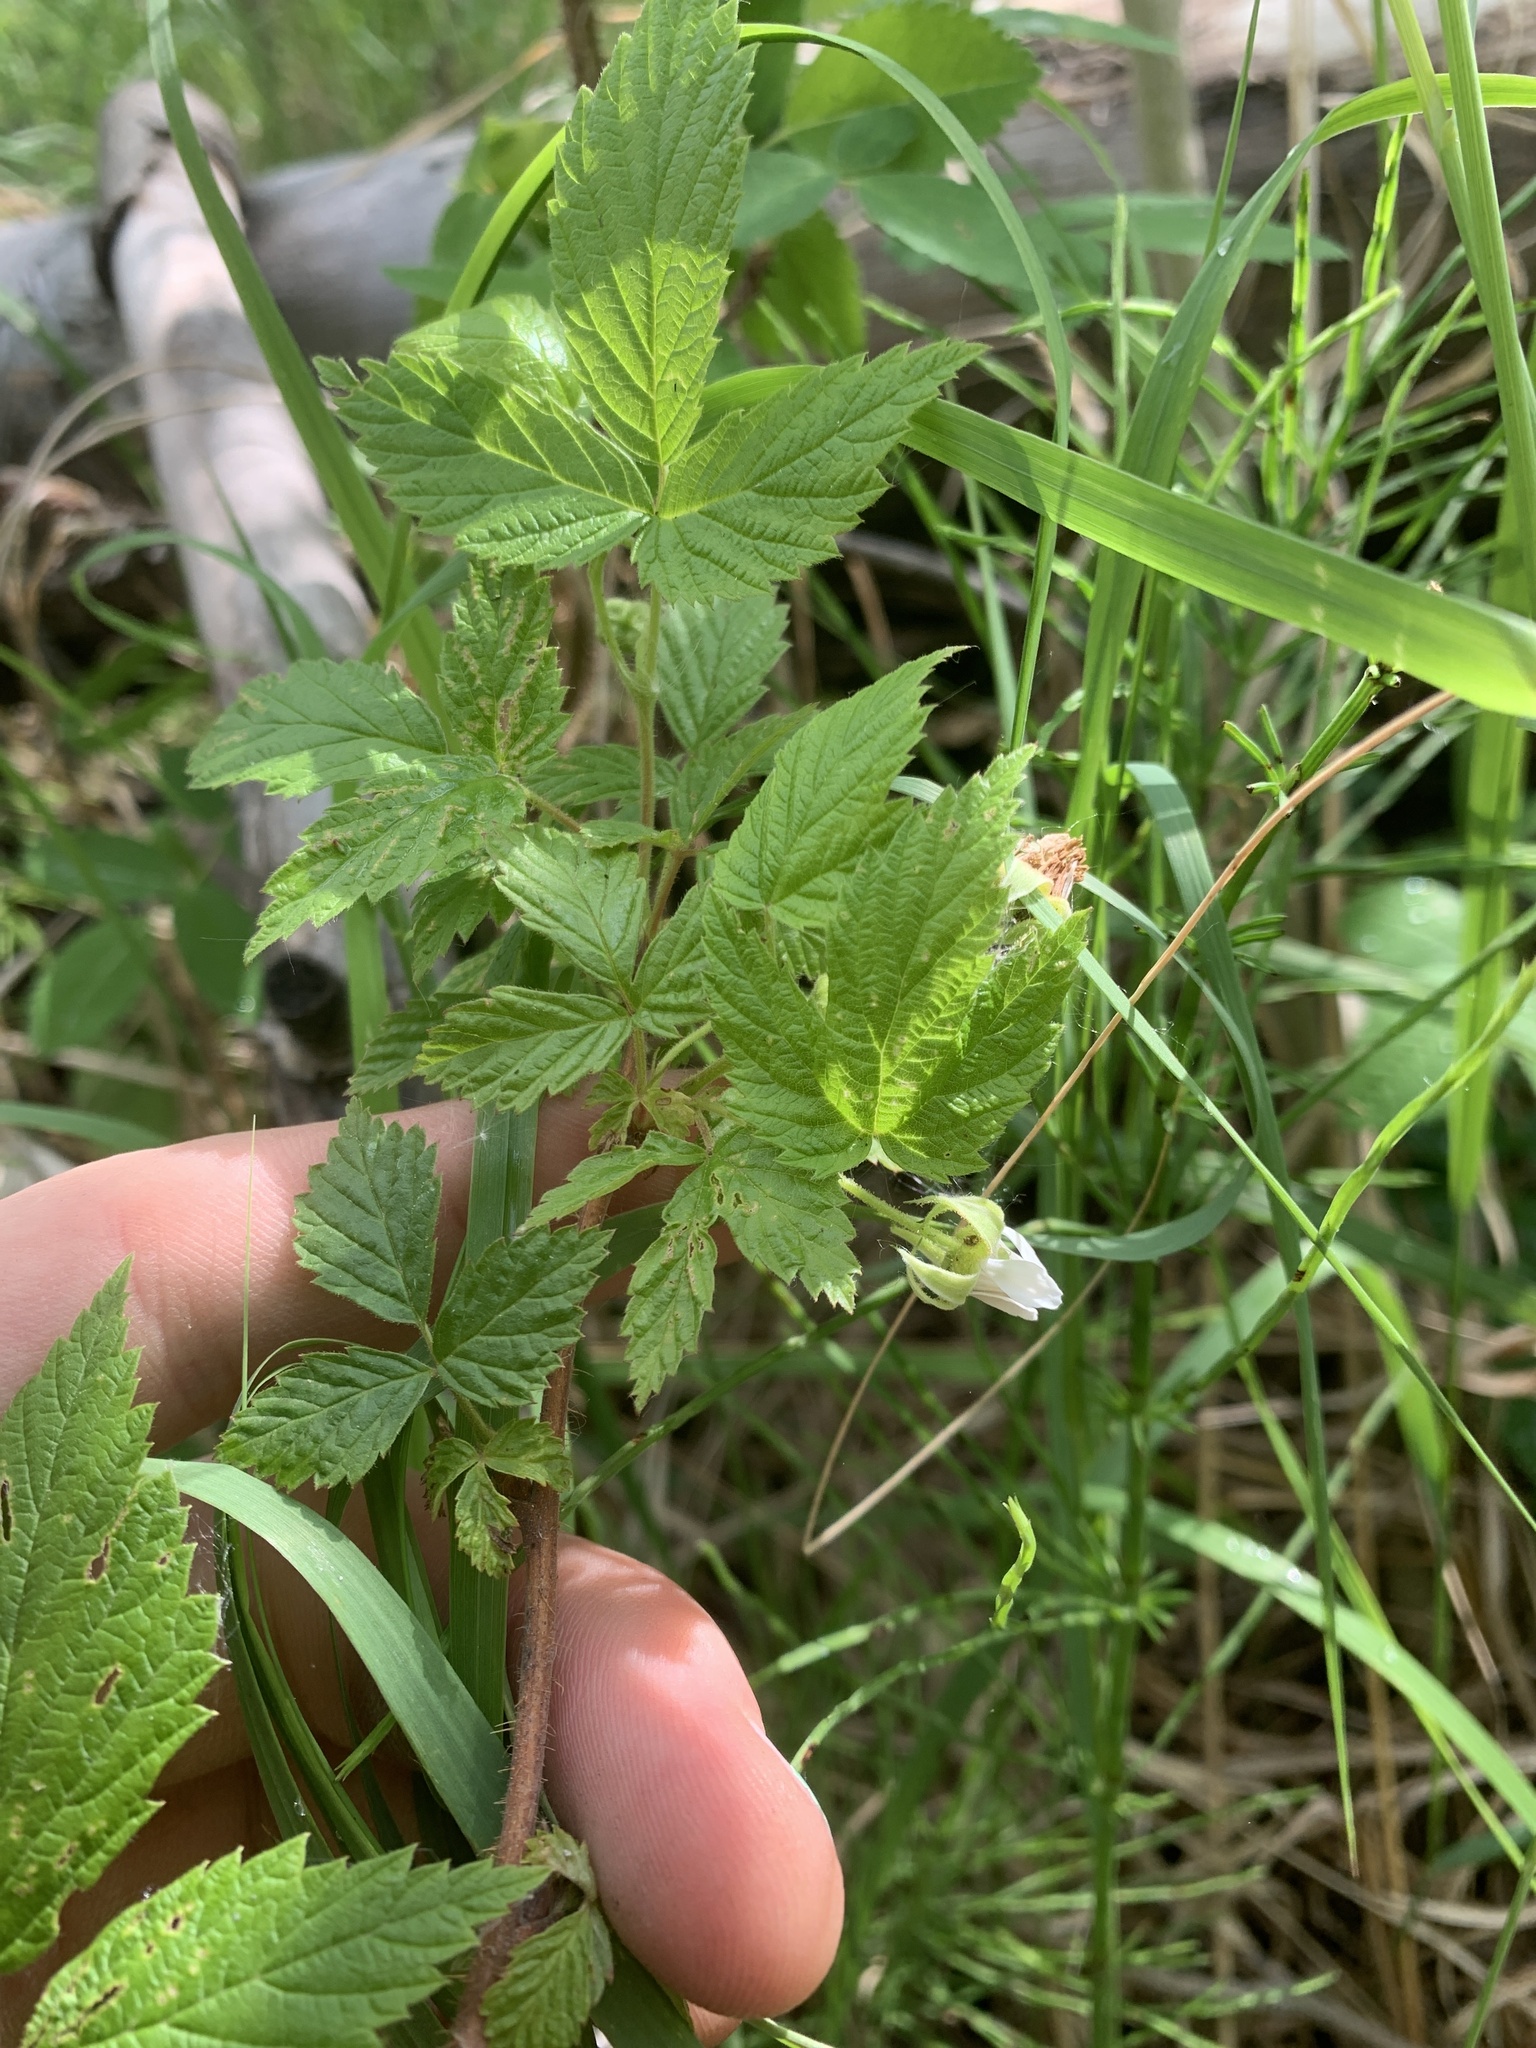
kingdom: Plantae
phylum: Tracheophyta
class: Magnoliopsida
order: Rosales
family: Rosaceae
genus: Rubus
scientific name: Rubus idaeus
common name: Raspberry
